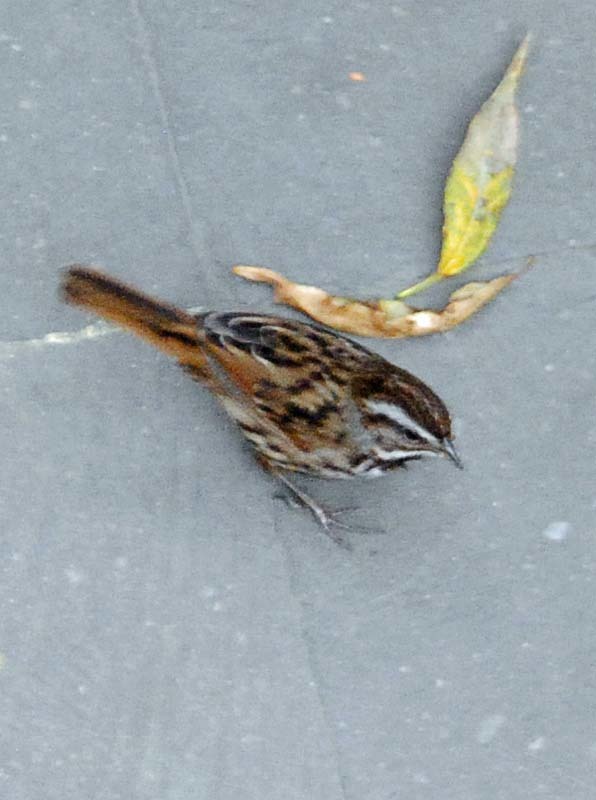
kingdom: Animalia
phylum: Chordata
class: Aves
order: Passeriformes
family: Passerellidae
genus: Melospiza
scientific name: Melospiza melodia
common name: Song sparrow
